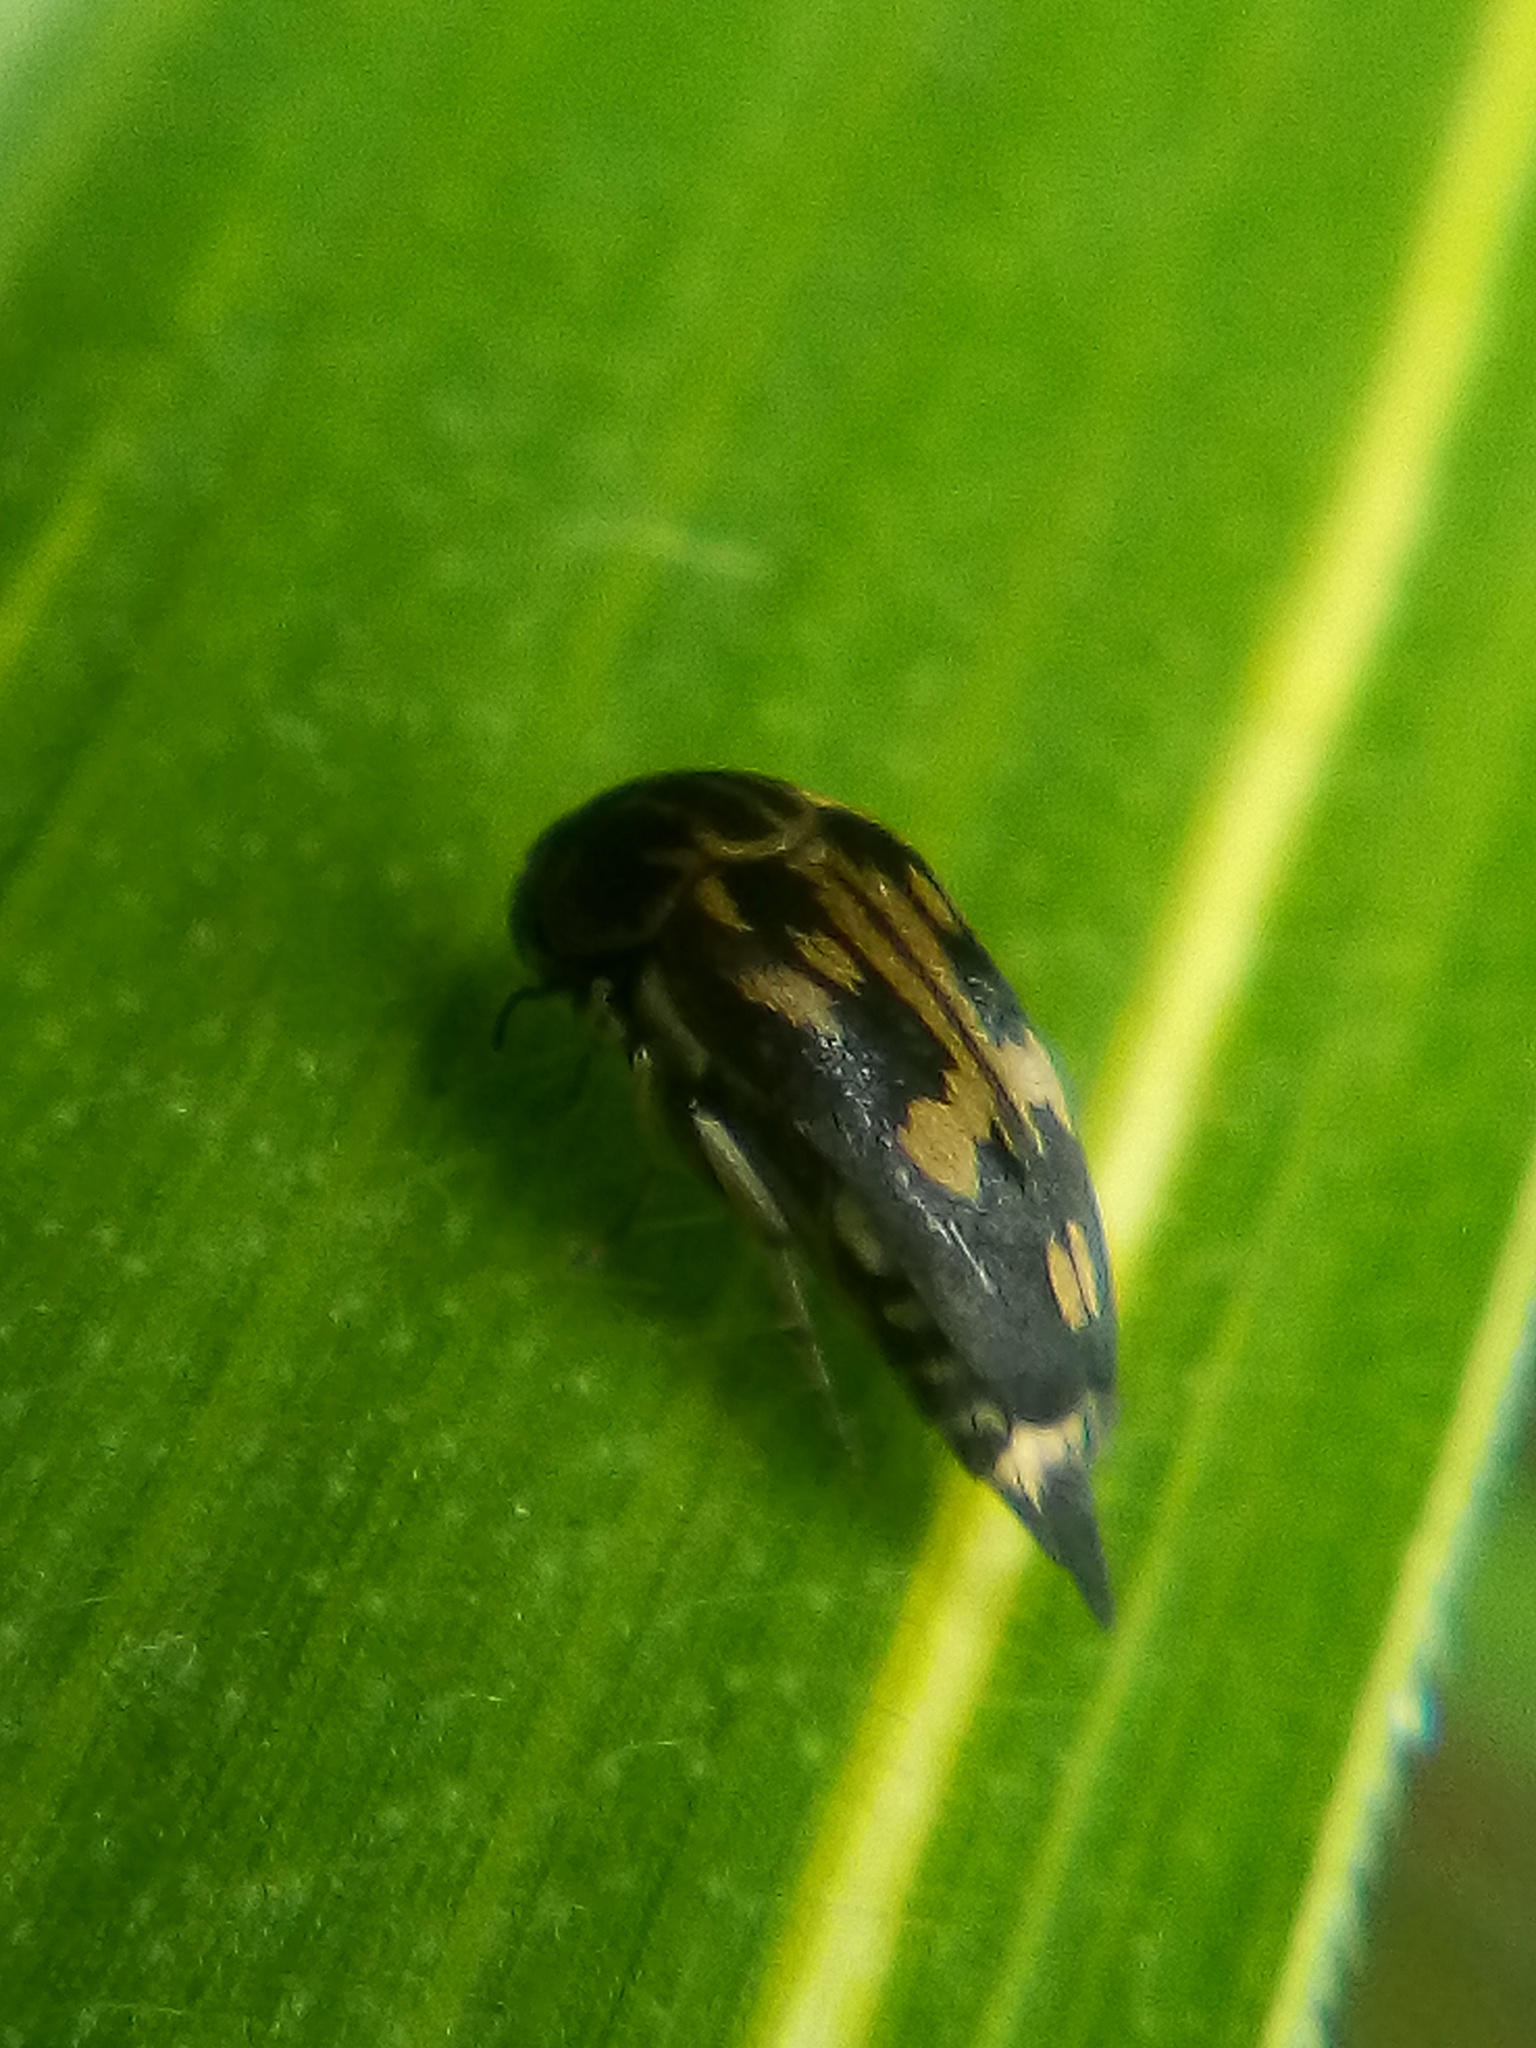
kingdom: Animalia
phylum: Arthropoda
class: Insecta
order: Coleoptera
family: Mordellidae
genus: Zeamordella
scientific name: Zeamordella monacha
